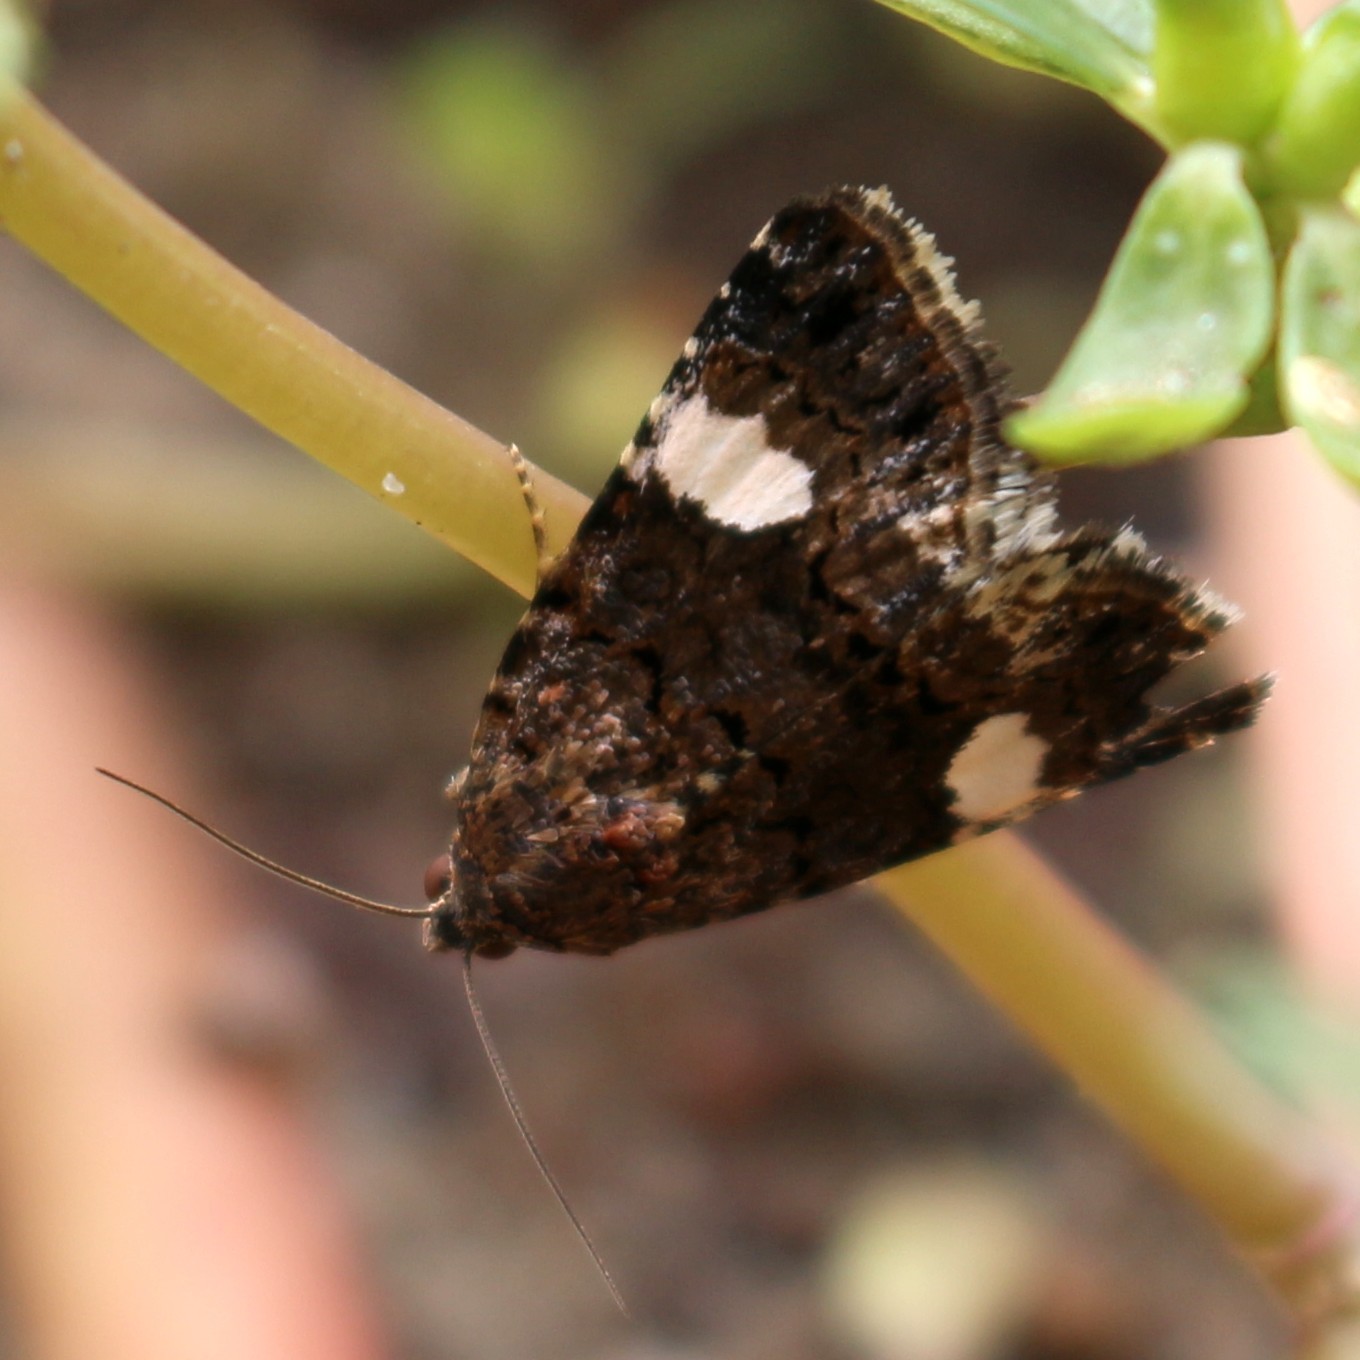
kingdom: Animalia
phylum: Arthropoda
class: Insecta
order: Lepidoptera
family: Erebidae
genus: Tyta
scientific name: Tyta luctuosa
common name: Four-spotted
